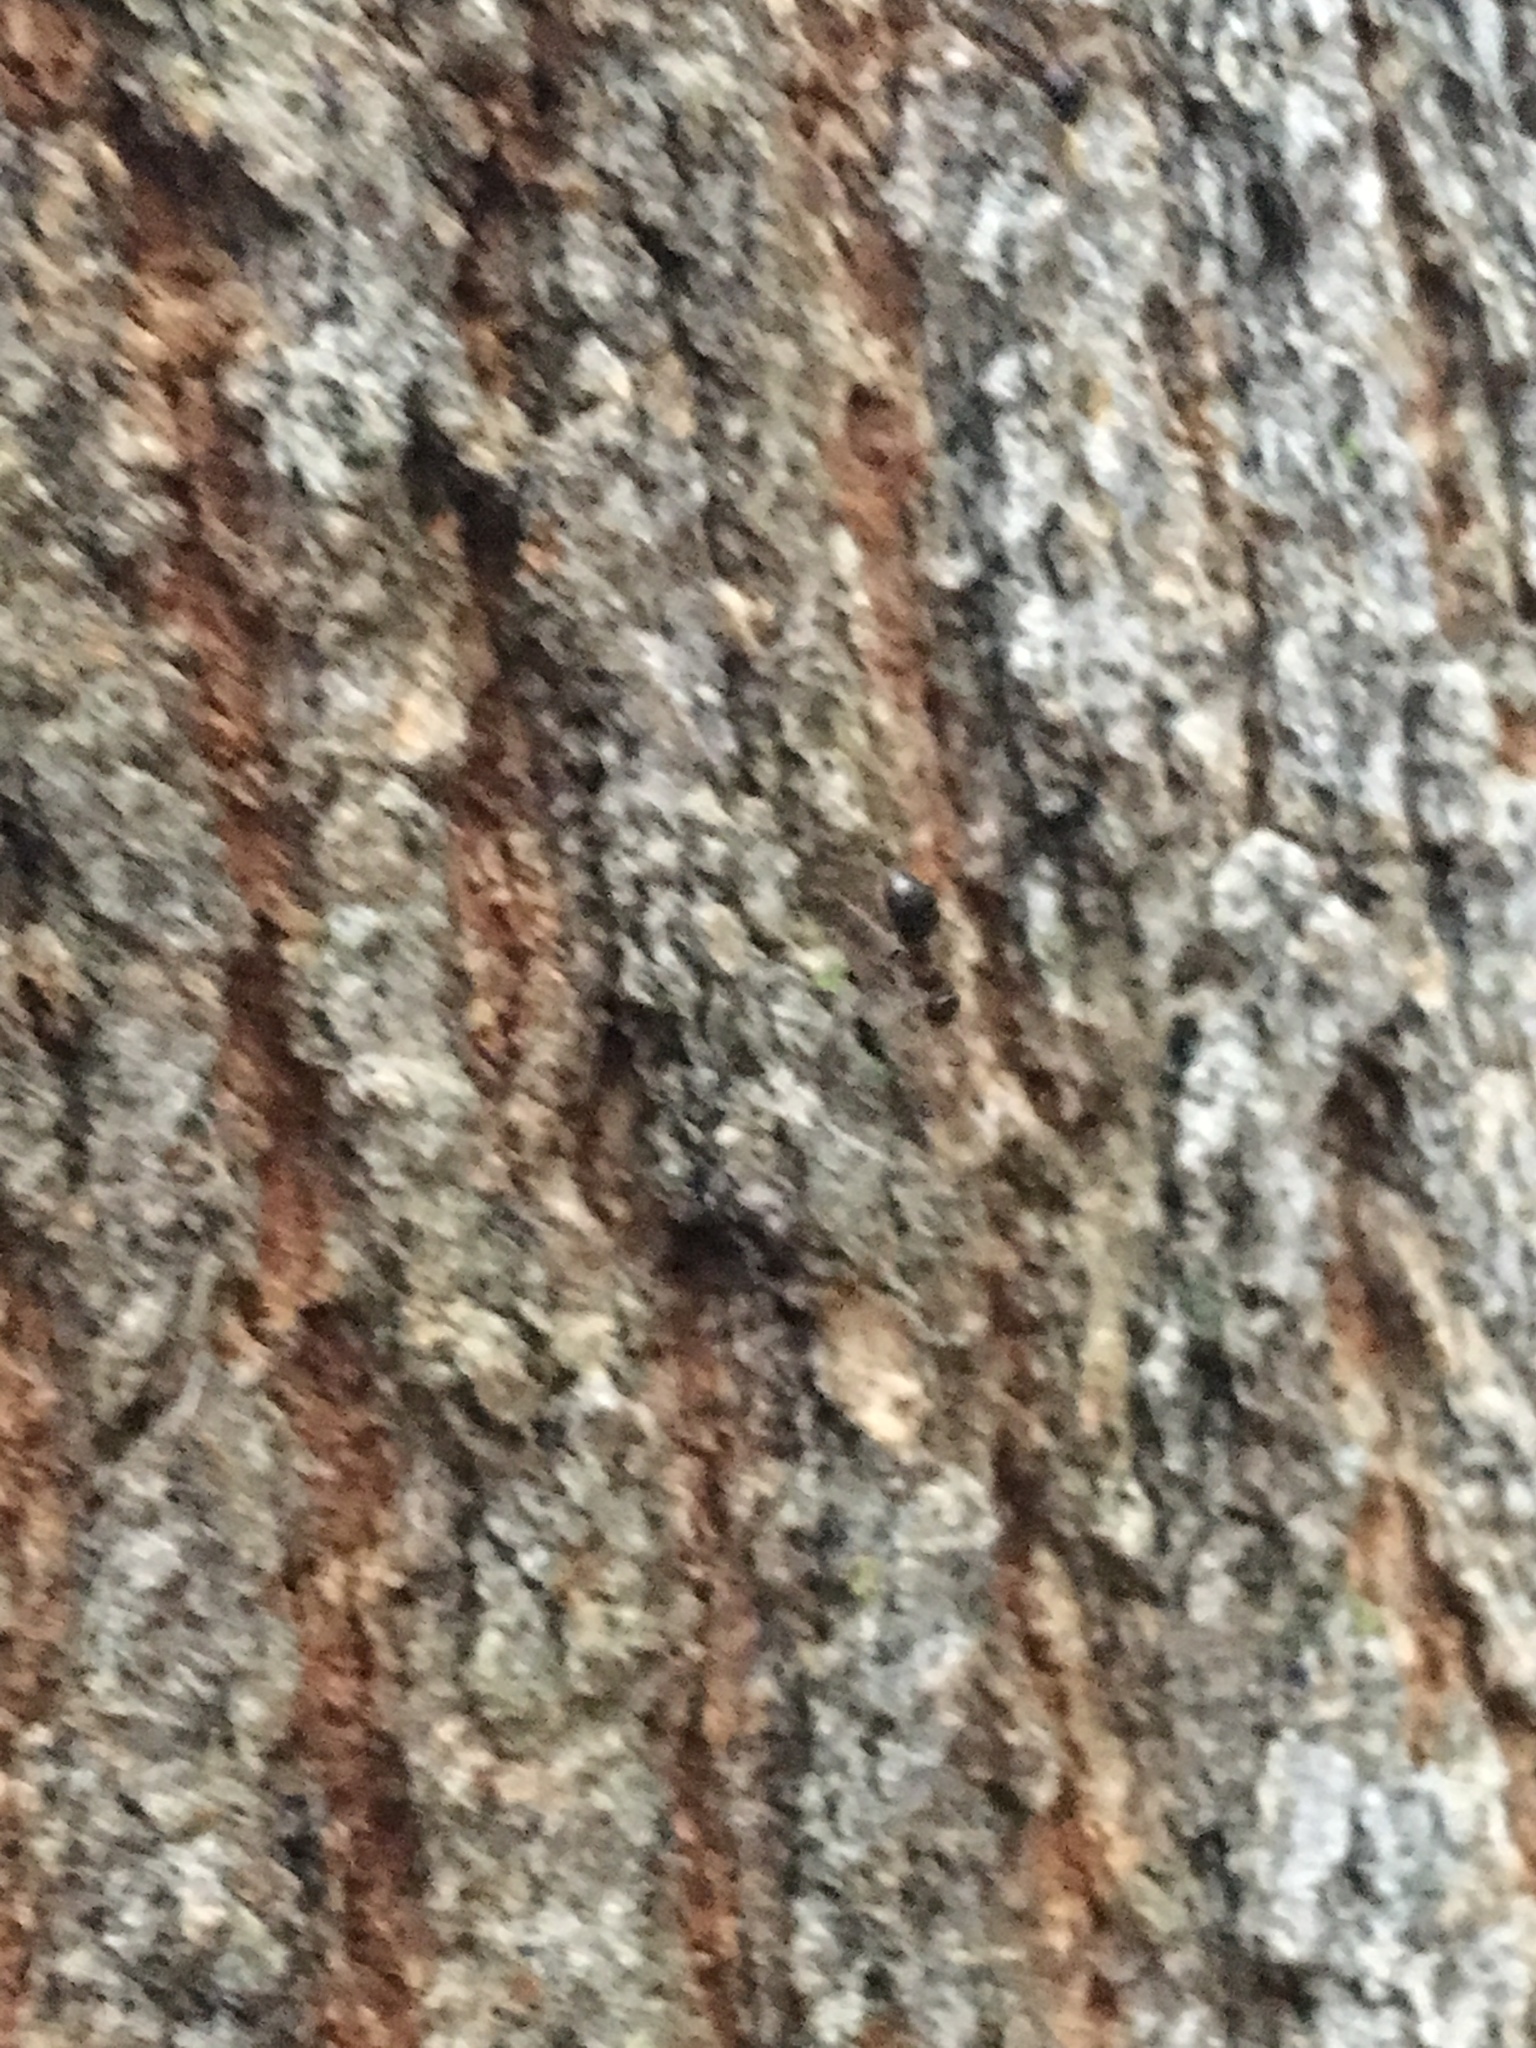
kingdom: Animalia
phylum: Arthropoda
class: Insecta
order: Hymenoptera
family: Formicidae
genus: Prenolepis
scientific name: Prenolepis imparis
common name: Small honey ant
